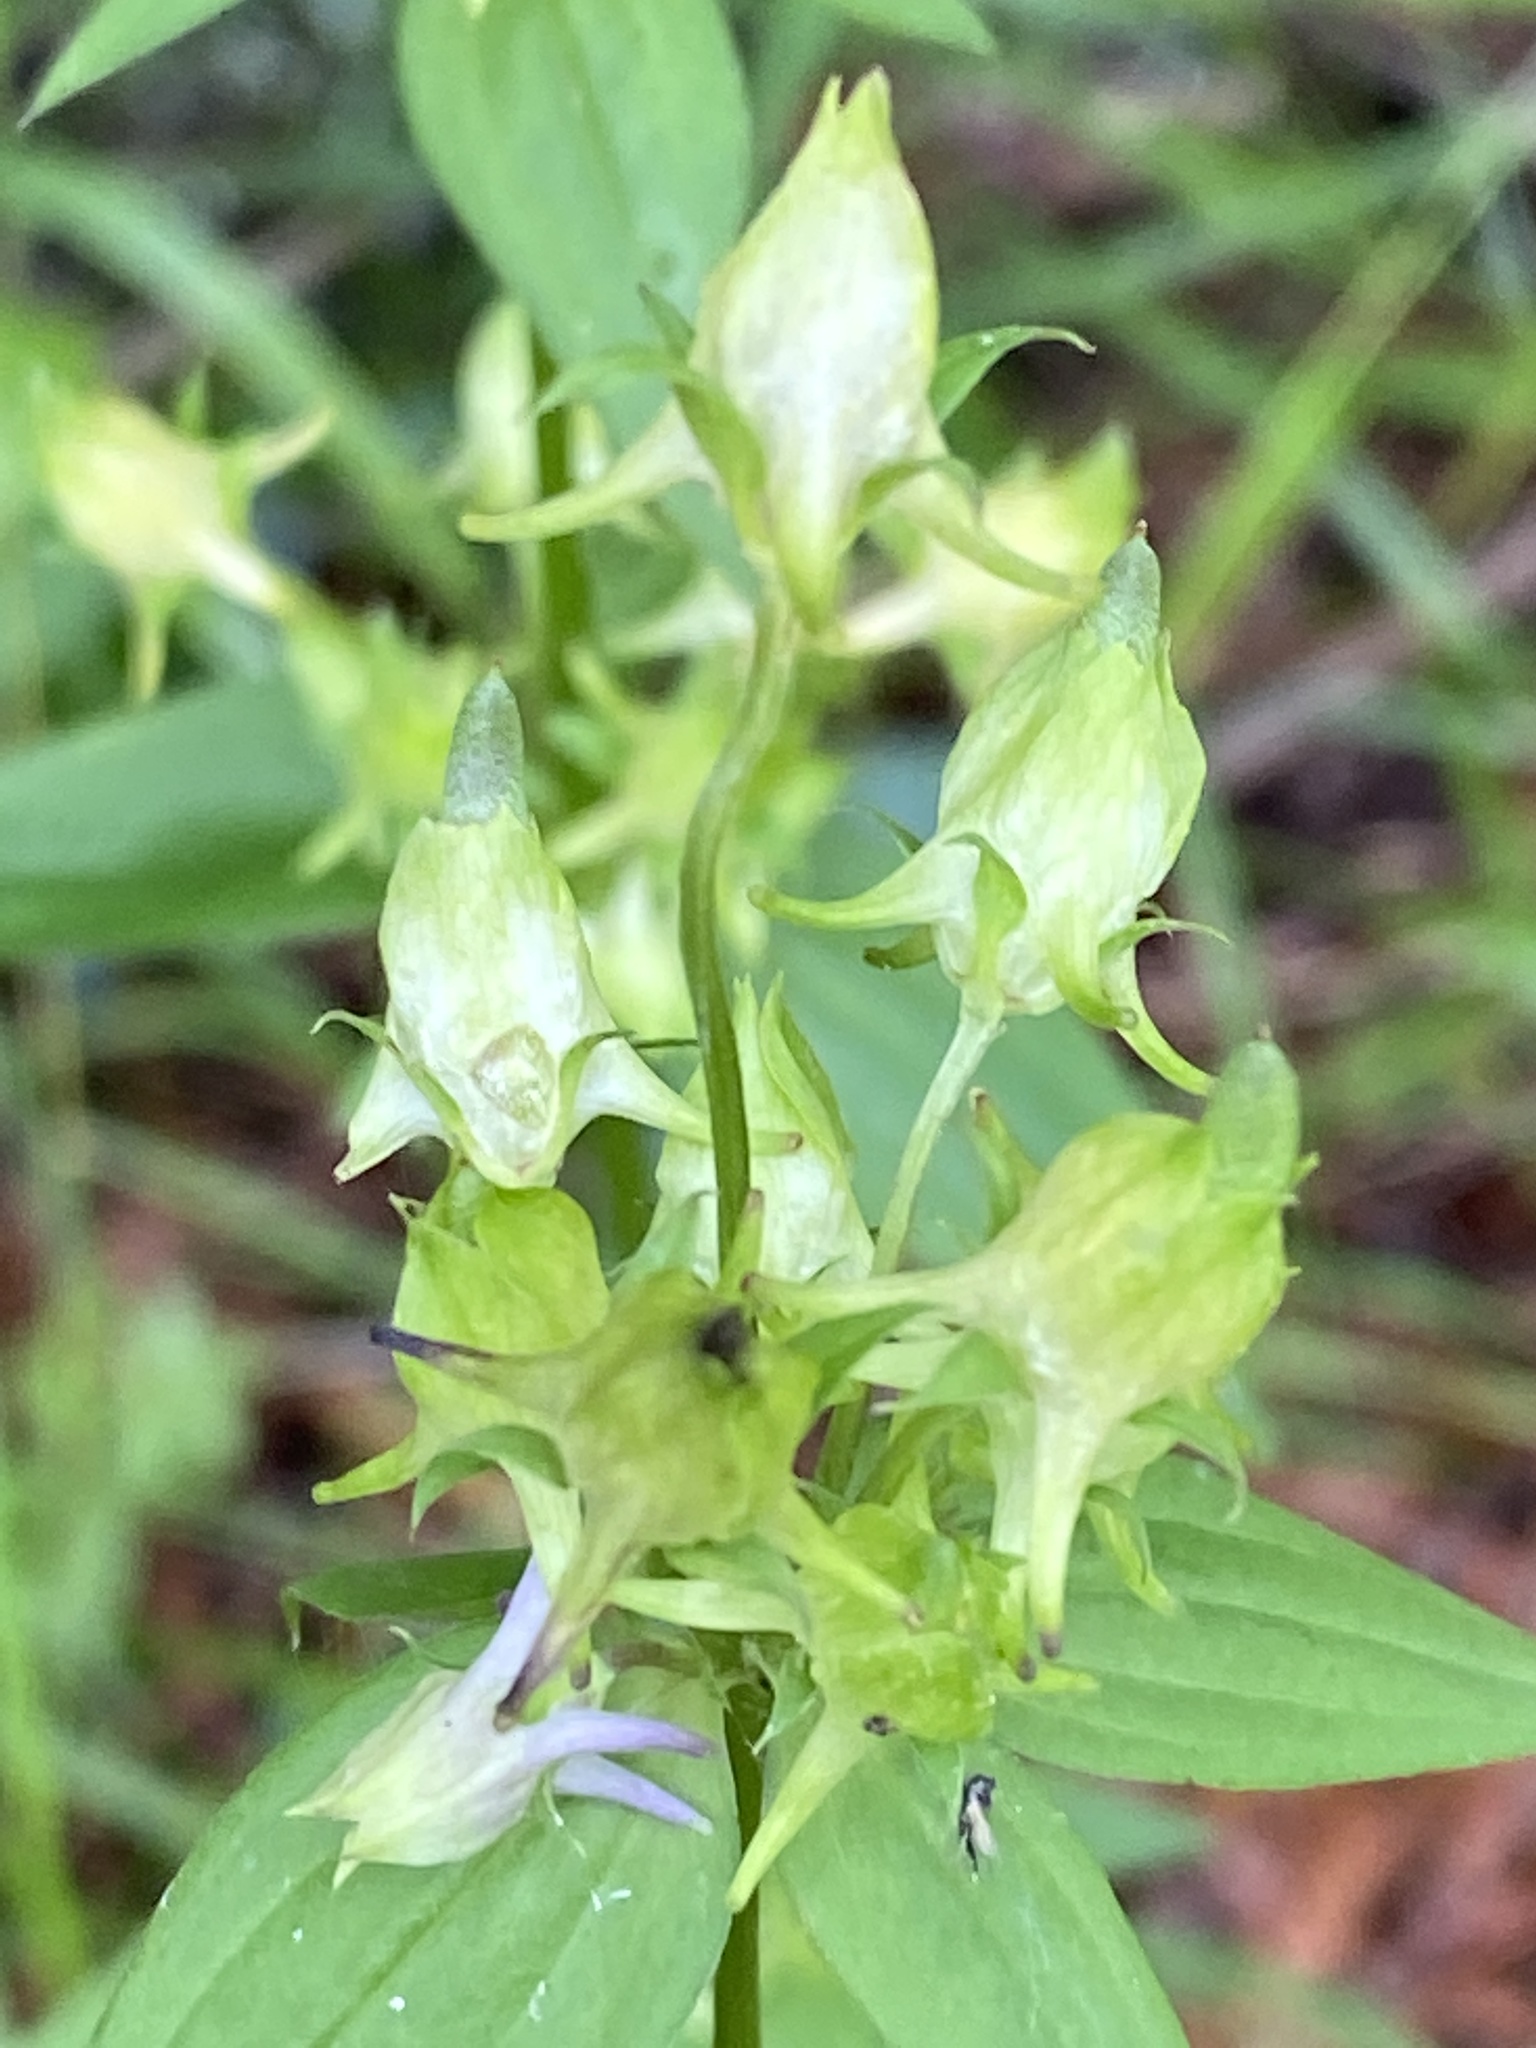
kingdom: Plantae
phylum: Tracheophyta
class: Magnoliopsida
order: Gentianales
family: Gentianaceae
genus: Halenia
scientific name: Halenia deflexa
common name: American spurred gentian
